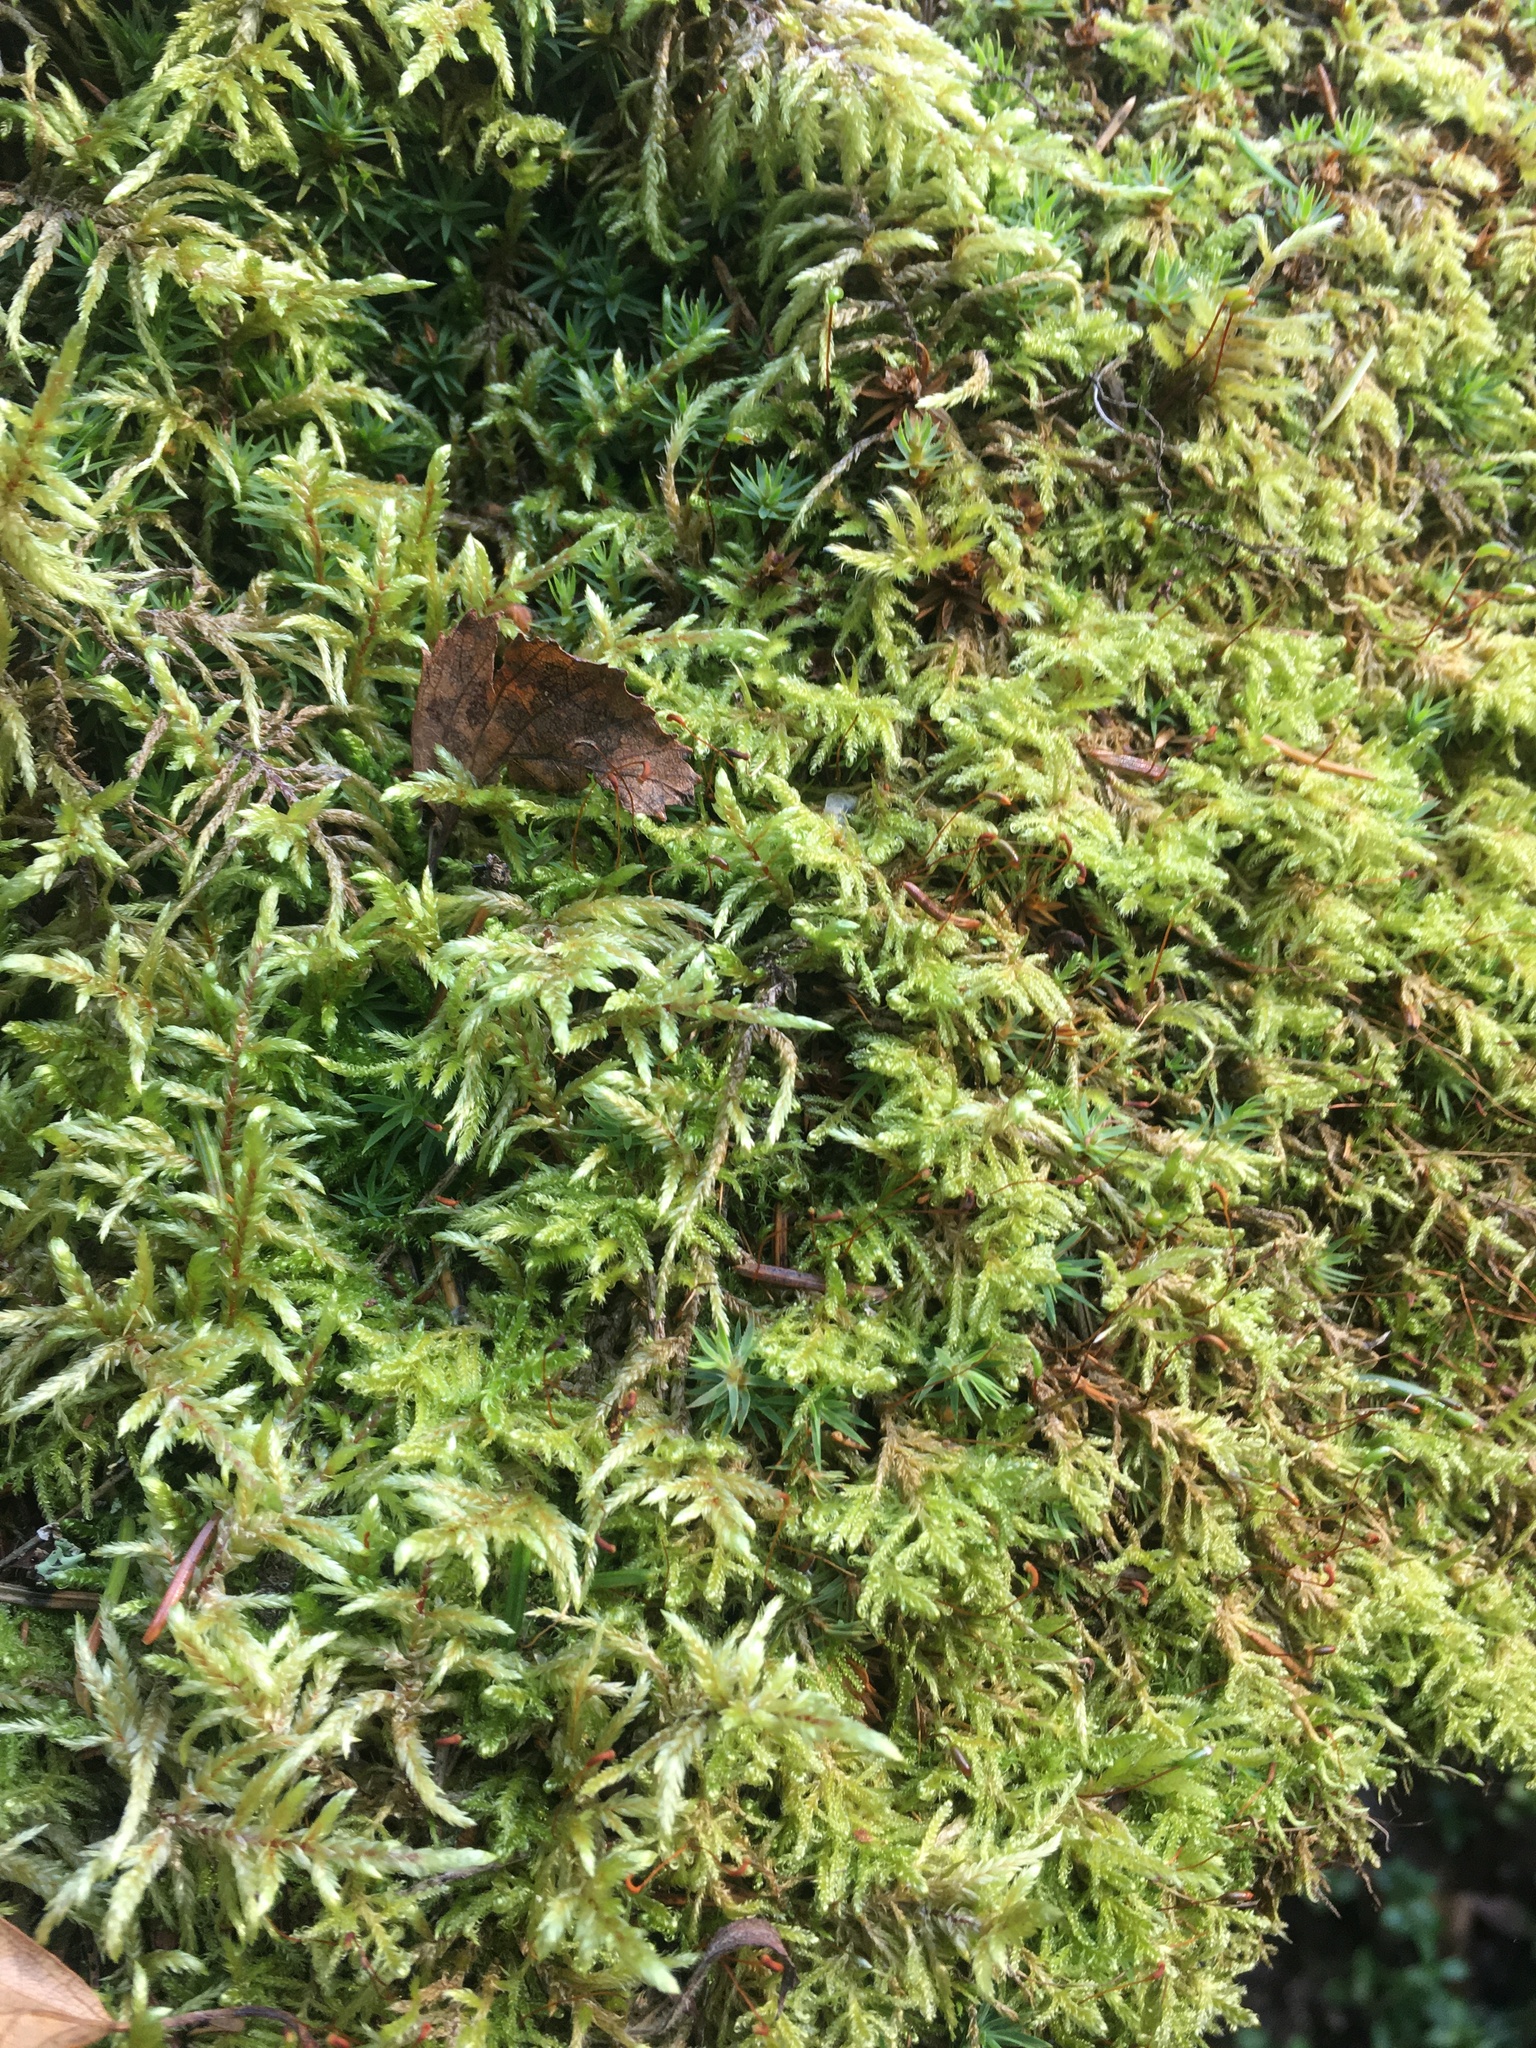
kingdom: Plantae
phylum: Bryophyta
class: Bryopsida
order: Hypnales
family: Hylocomiaceae
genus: Pleurozium
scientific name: Pleurozium schreberi
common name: Red-stemmed feather moss
